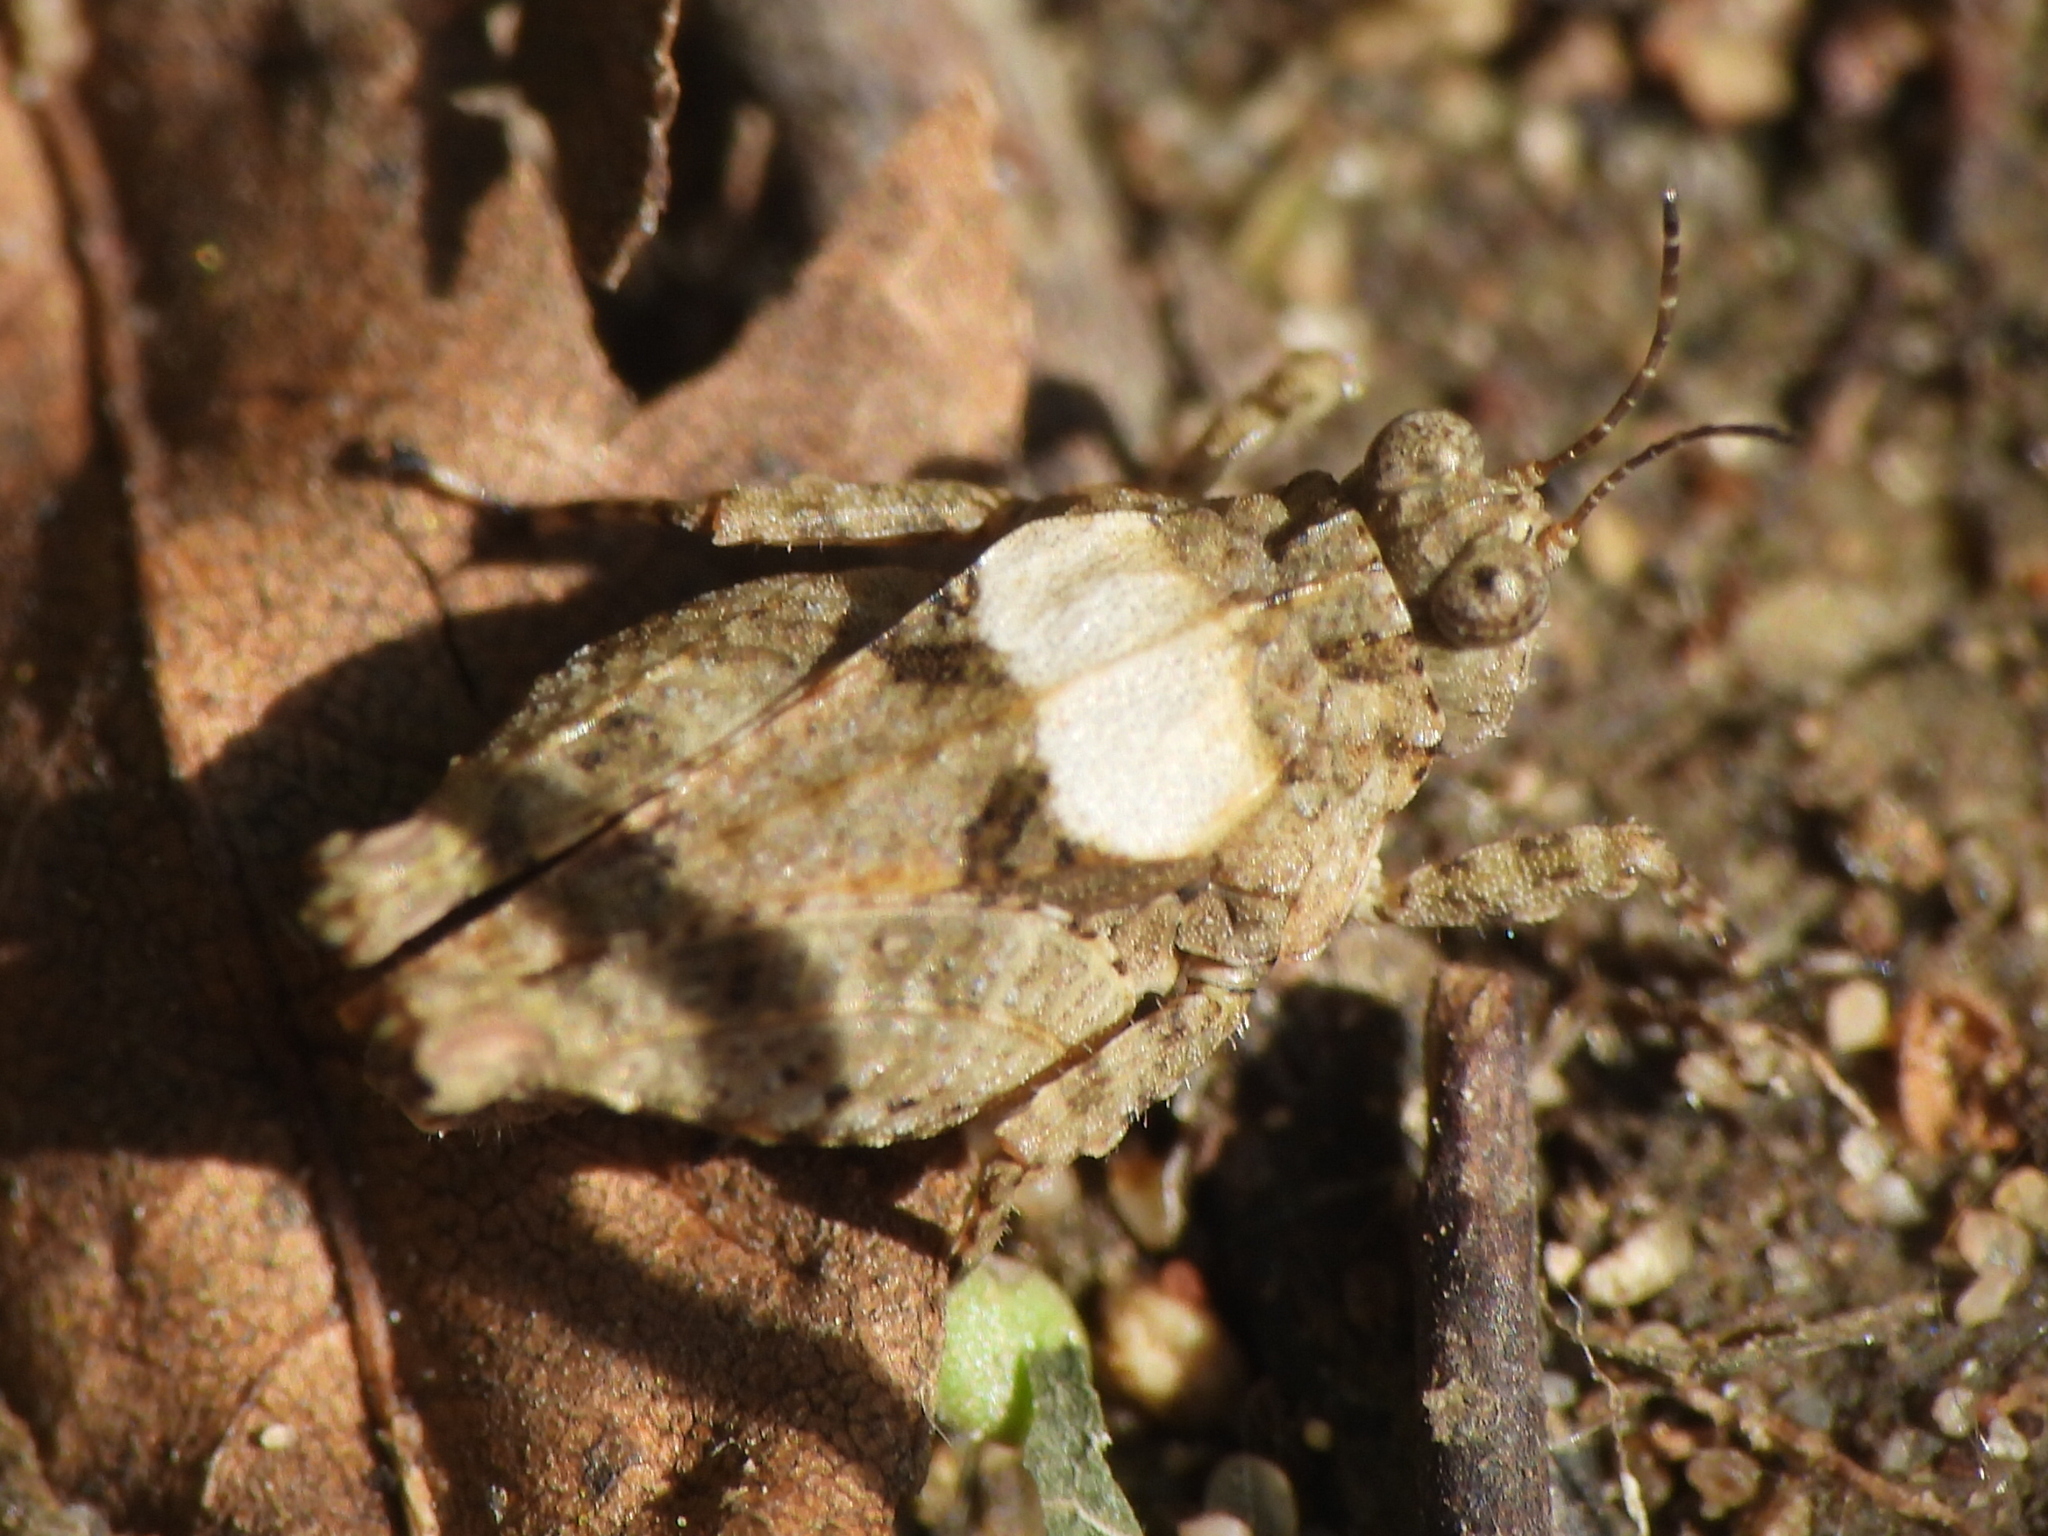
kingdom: Animalia
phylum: Arthropoda
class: Insecta
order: Orthoptera
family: Tetrigidae
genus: Paratettix
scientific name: Paratettix mexicanus
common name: Mexican pygmy grasshopper
